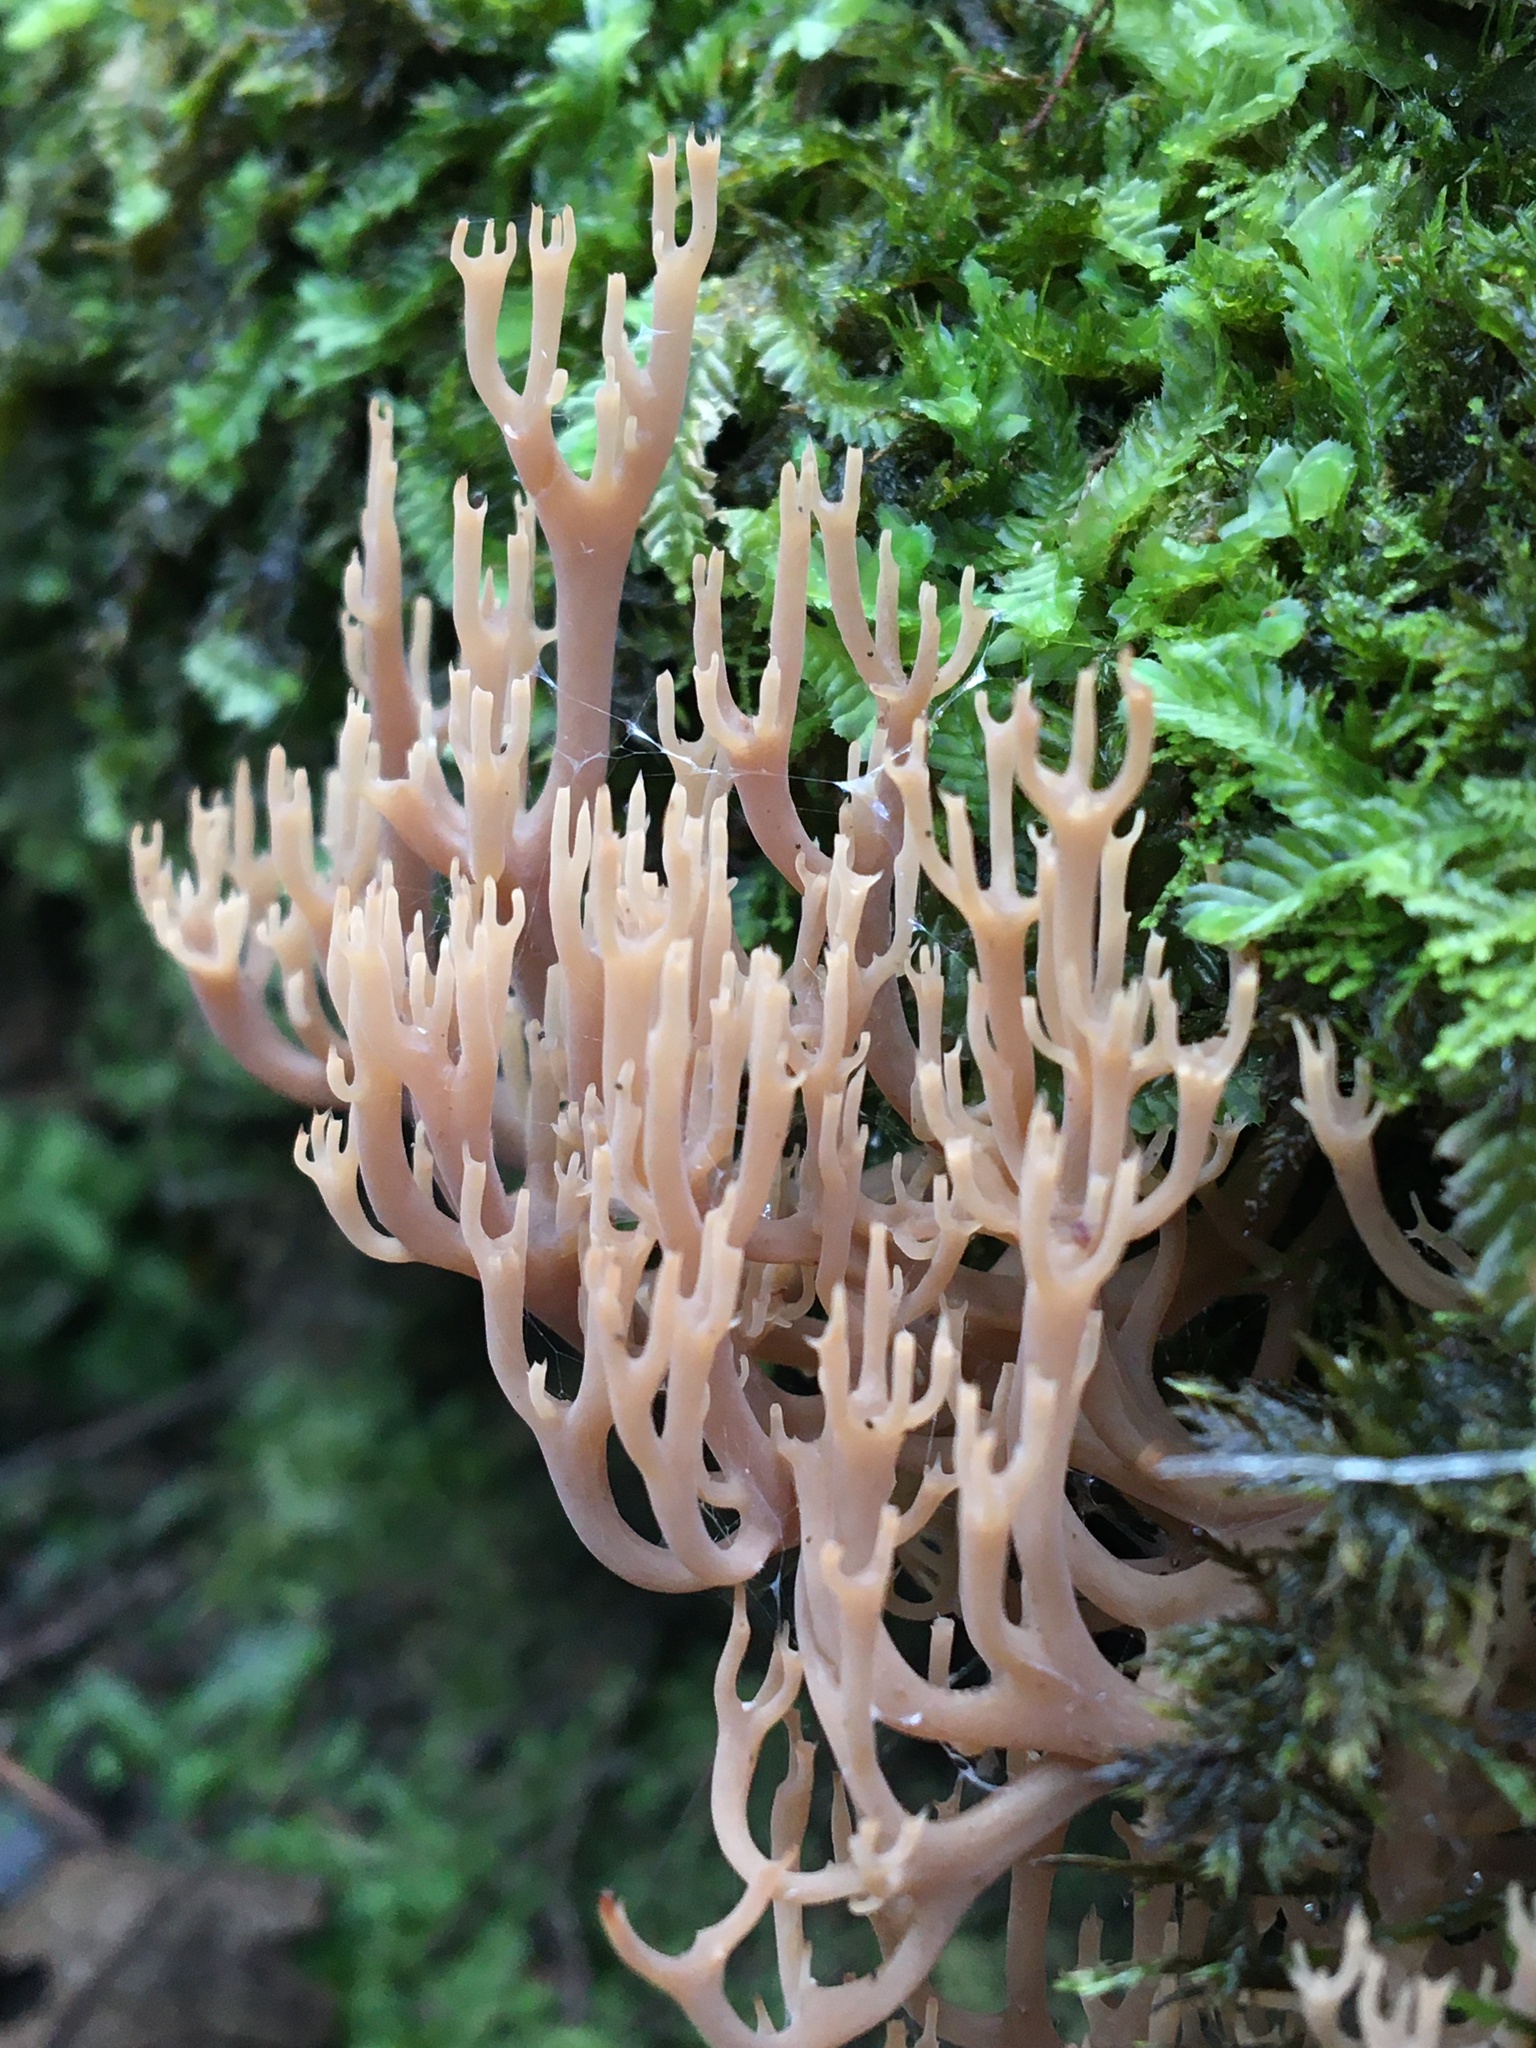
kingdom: Fungi
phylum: Basidiomycota
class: Agaricomycetes
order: Russulales
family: Auriscalpiaceae
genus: Artomyces
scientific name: Artomyces austropiperatus
